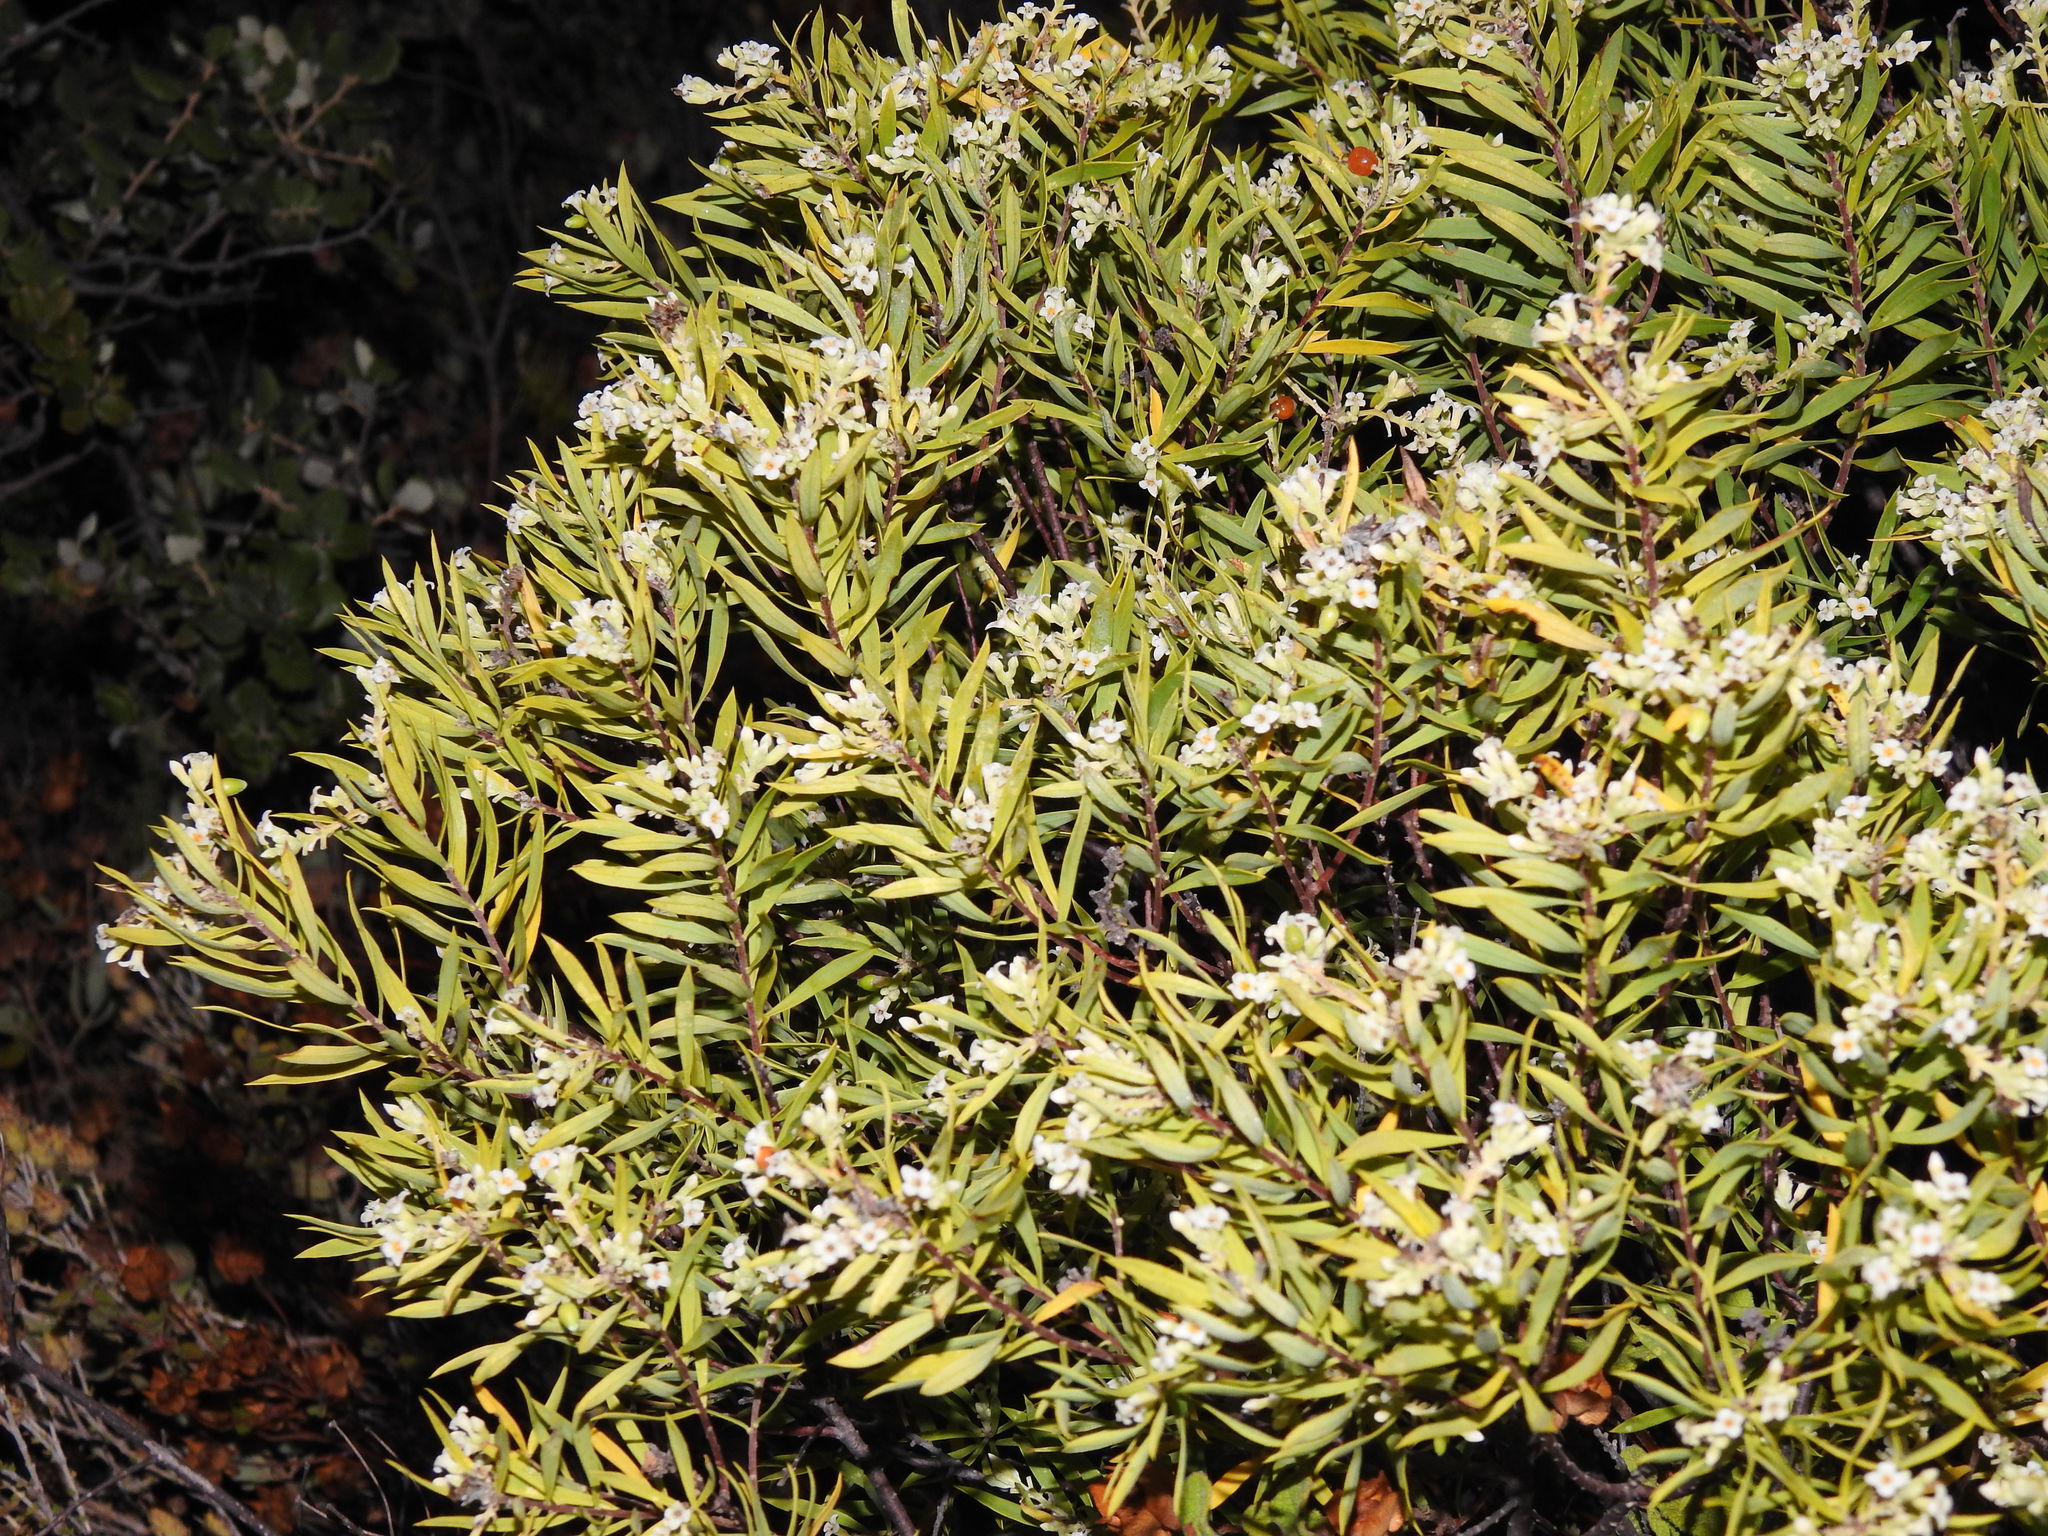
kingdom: Plantae
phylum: Tracheophyta
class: Magnoliopsida
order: Malvales
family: Thymelaeaceae
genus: Daphne
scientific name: Daphne gnidium
